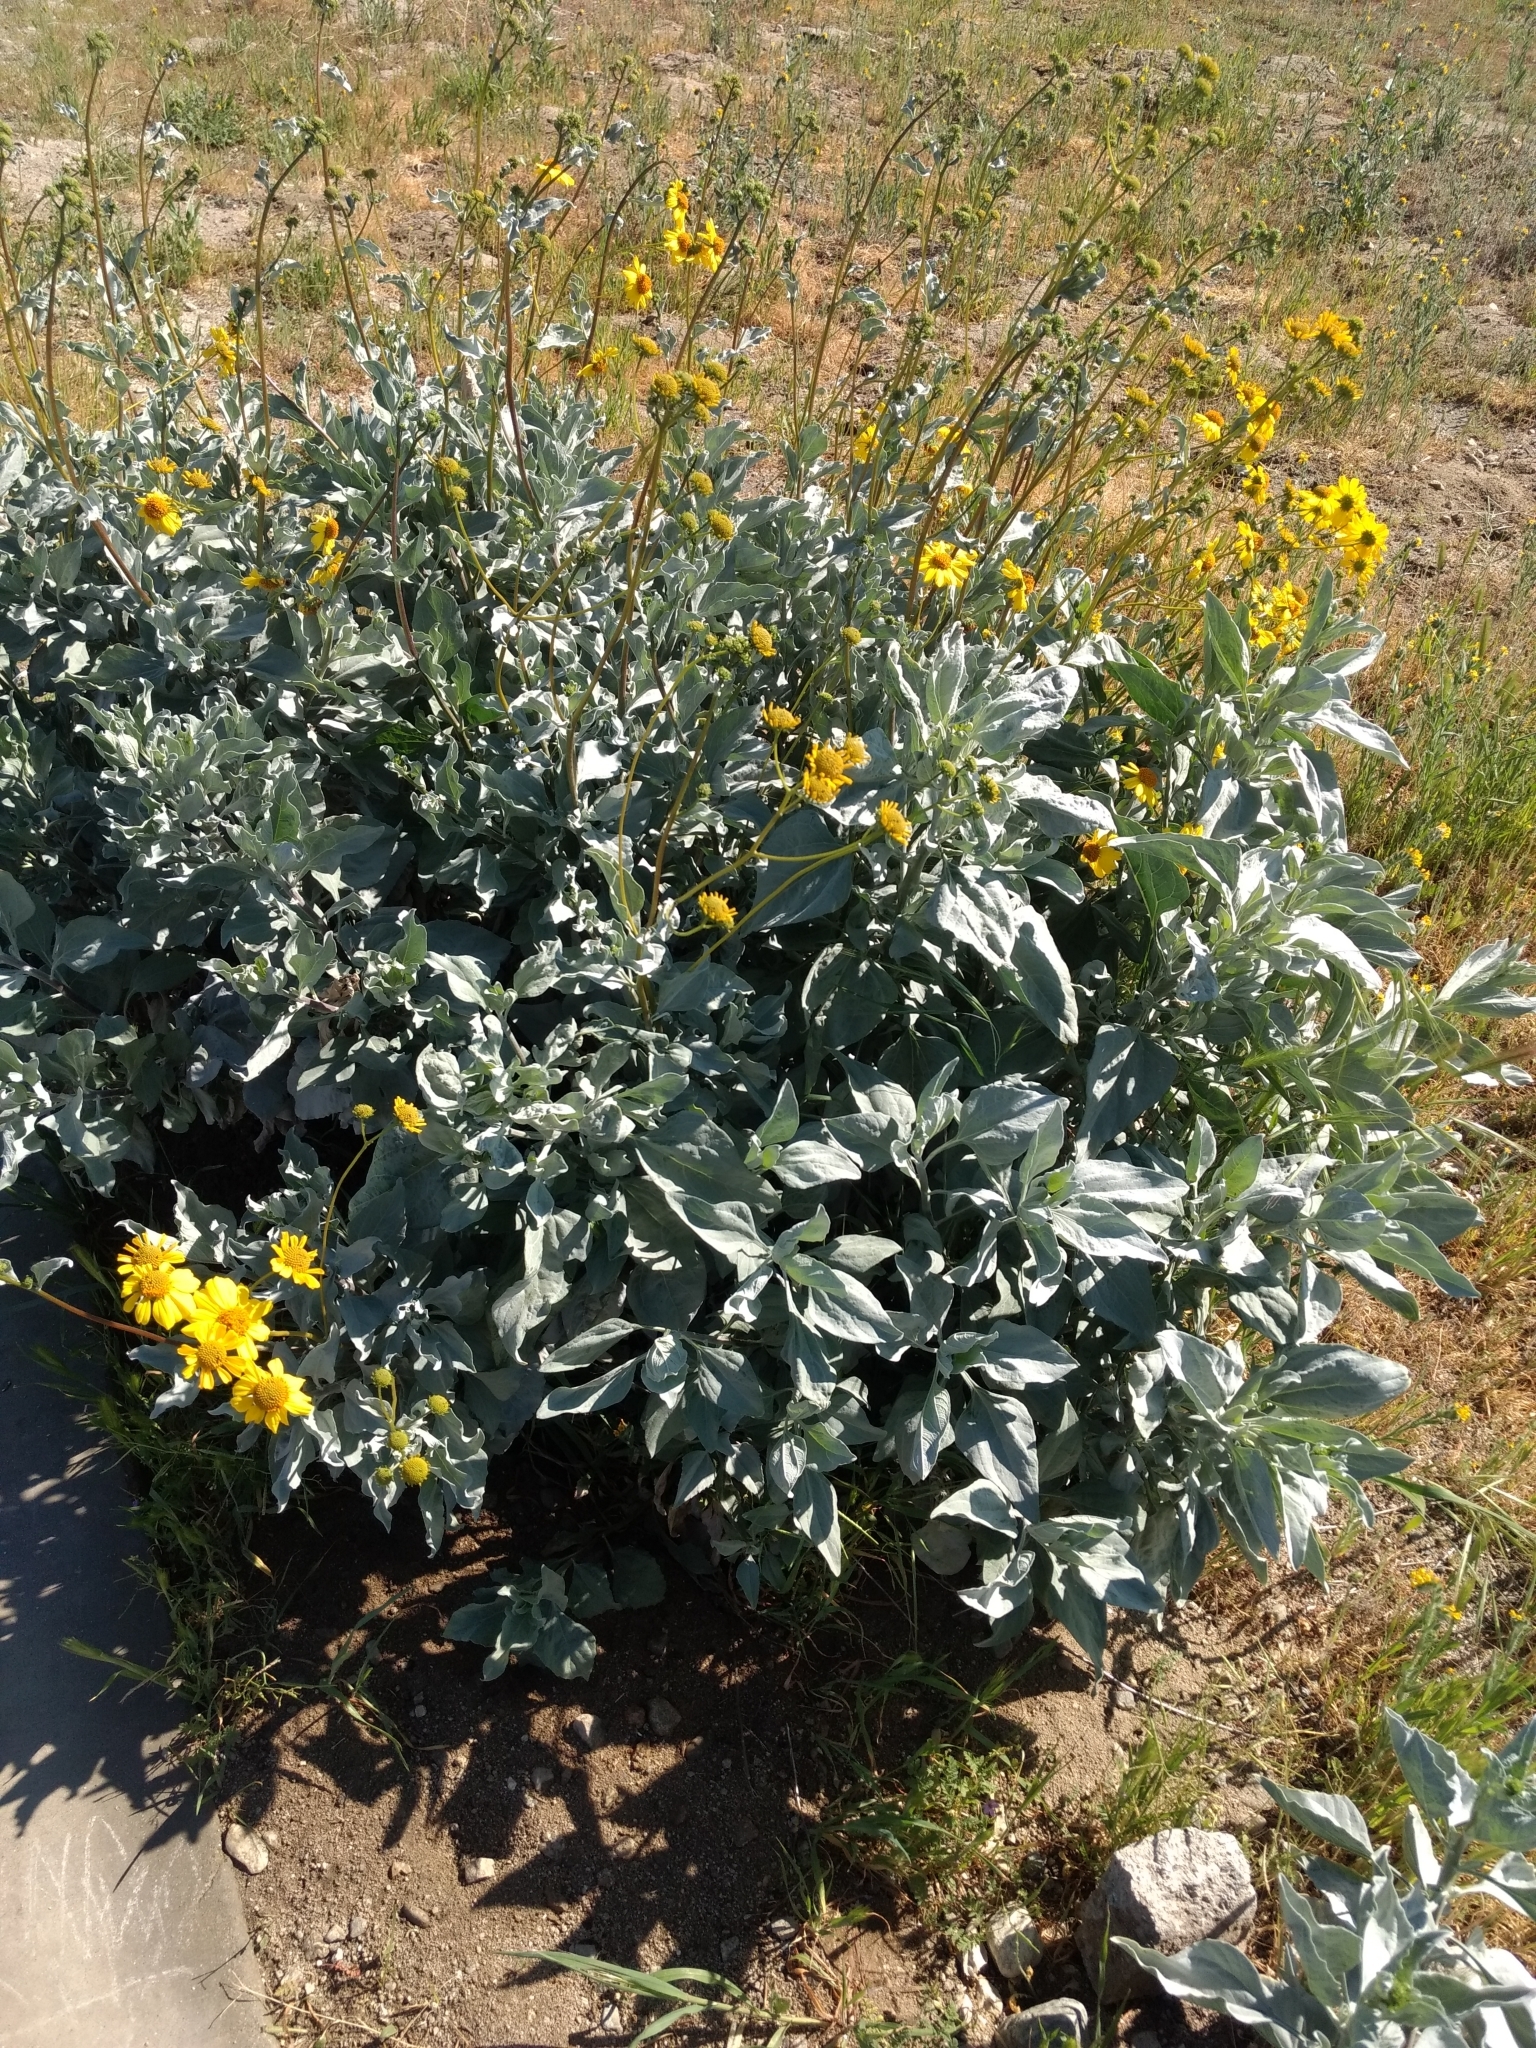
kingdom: Plantae
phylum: Tracheophyta
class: Magnoliopsida
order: Asterales
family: Asteraceae
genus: Encelia
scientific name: Encelia farinosa
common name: Brittlebush
